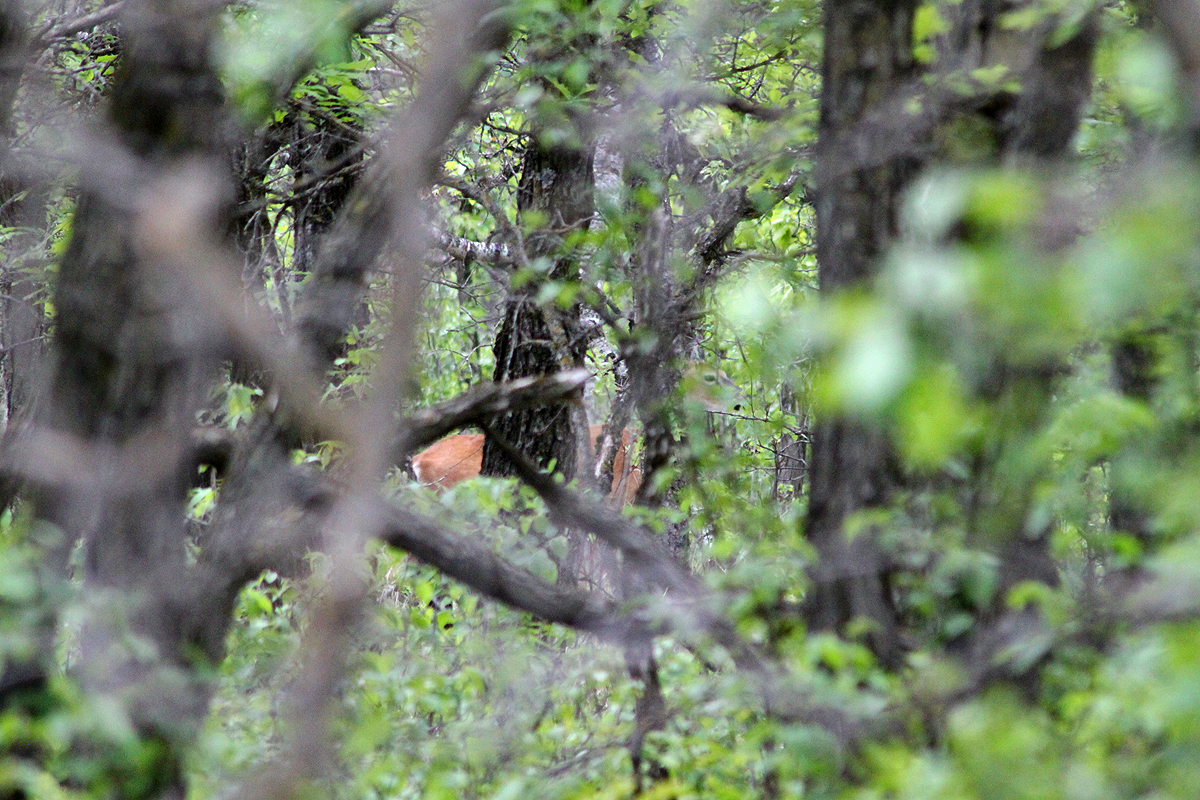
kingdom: Animalia
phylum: Chordata
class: Mammalia
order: Artiodactyla
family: Cervidae
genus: Odocoileus
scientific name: Odocoileus virginianus
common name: White-tailed deer
